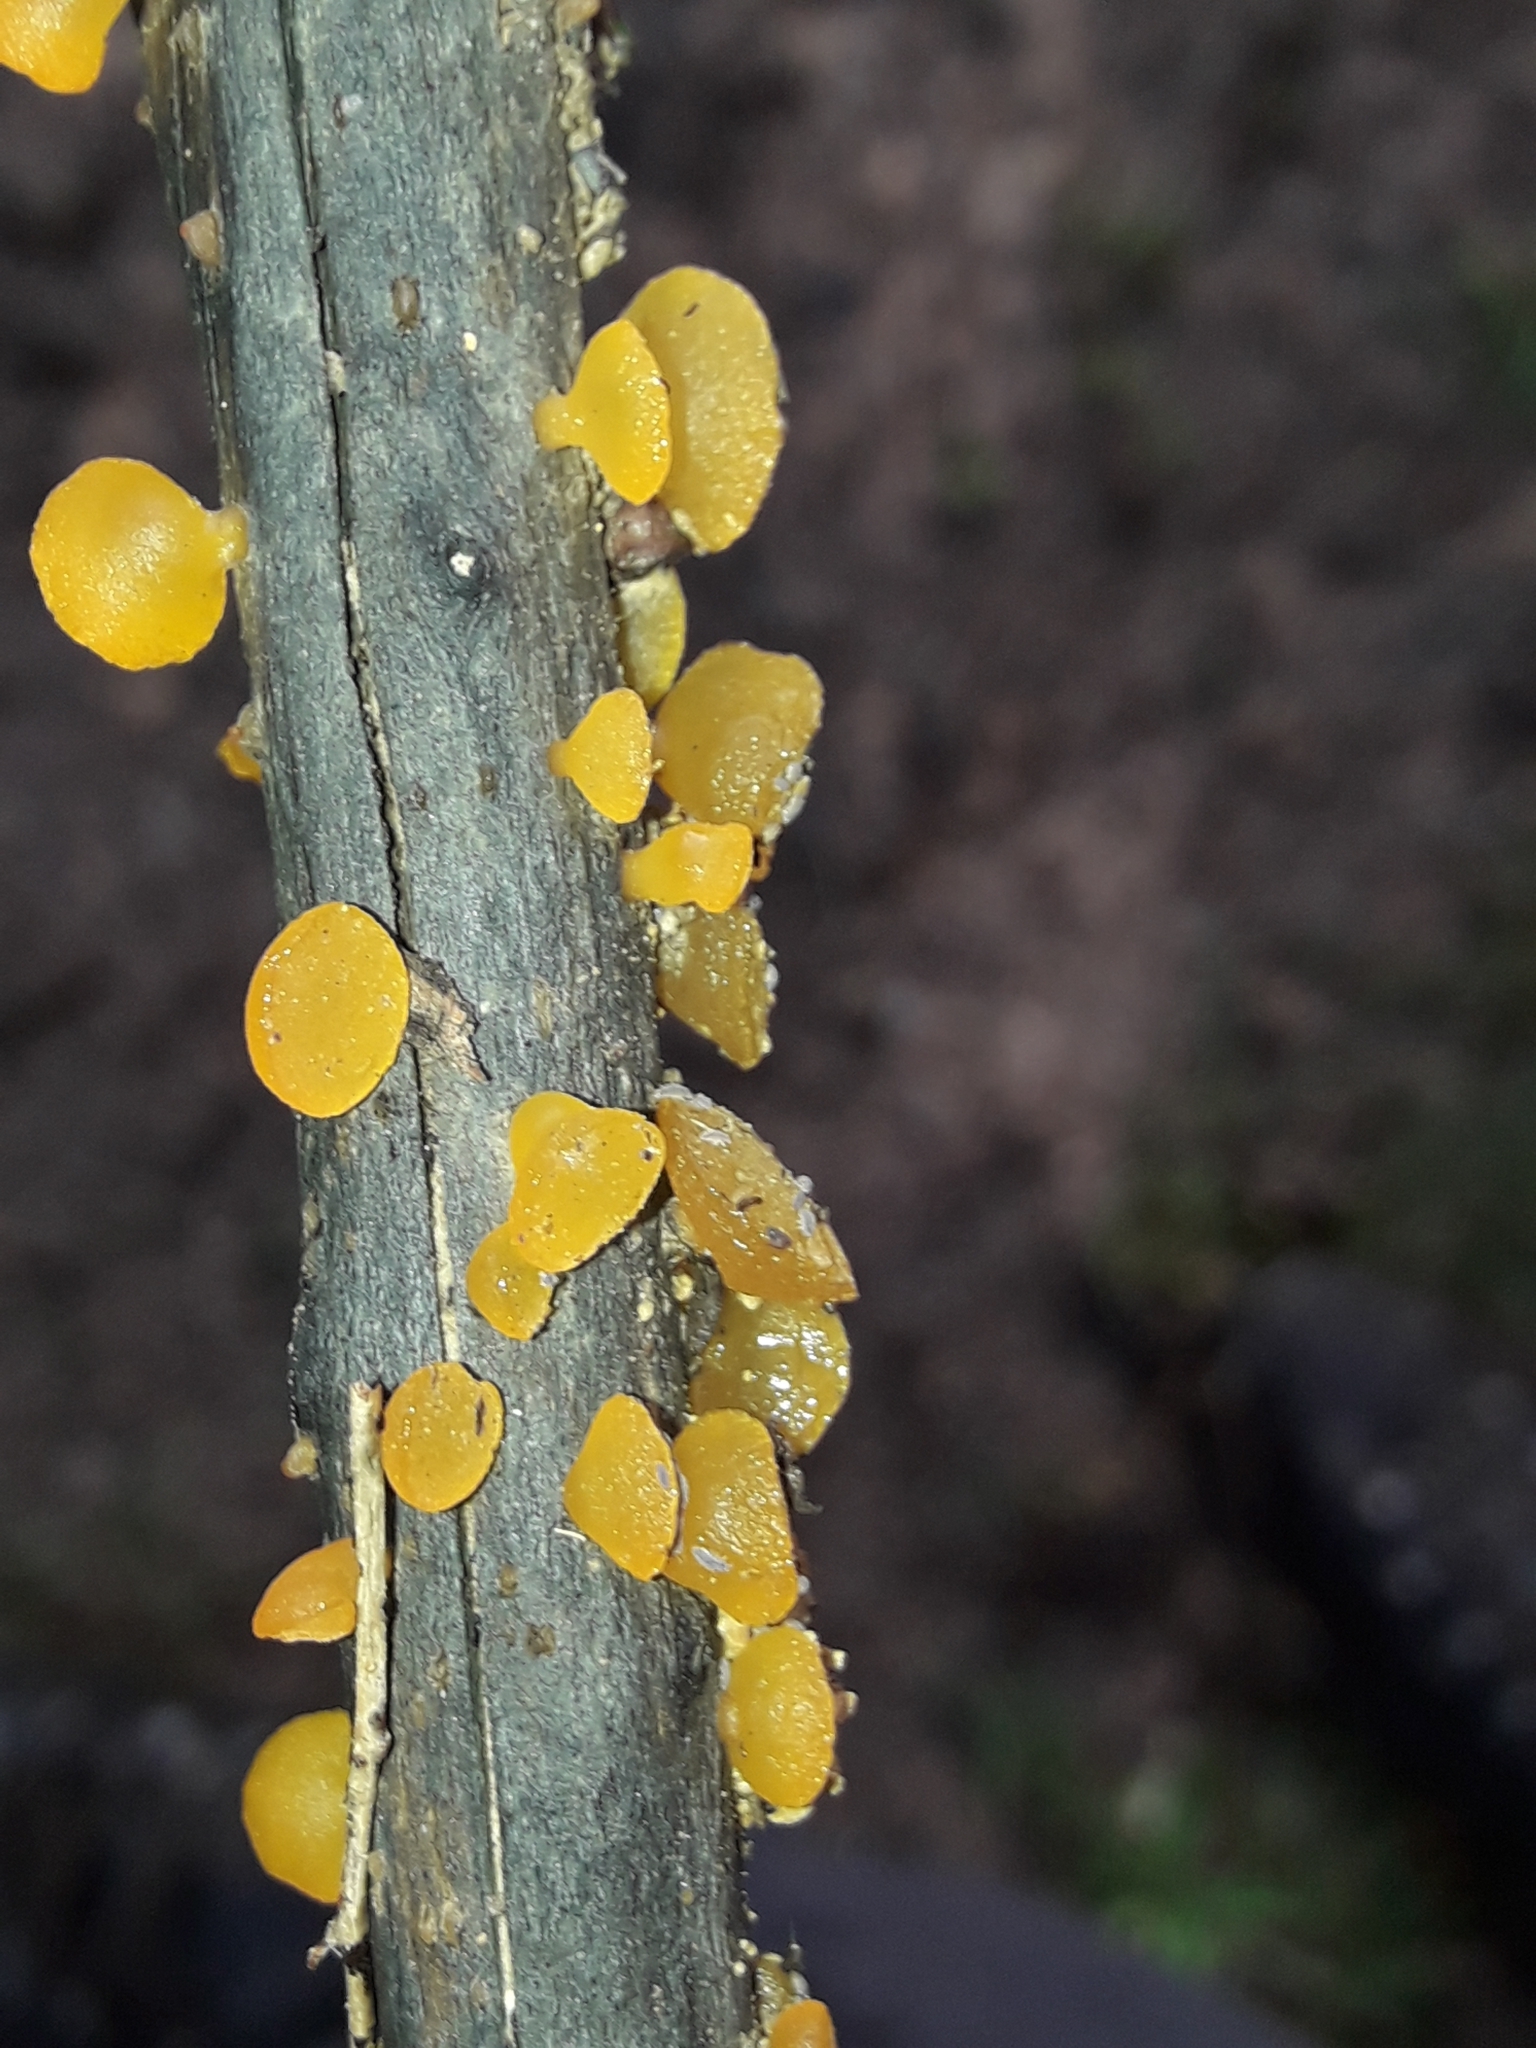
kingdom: Fungi
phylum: Basidiomycota
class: Dacrymycetes
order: Dacrymycetales
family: Dacrymycetaceae
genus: Heterotextus
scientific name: Heterotextus miltinus
